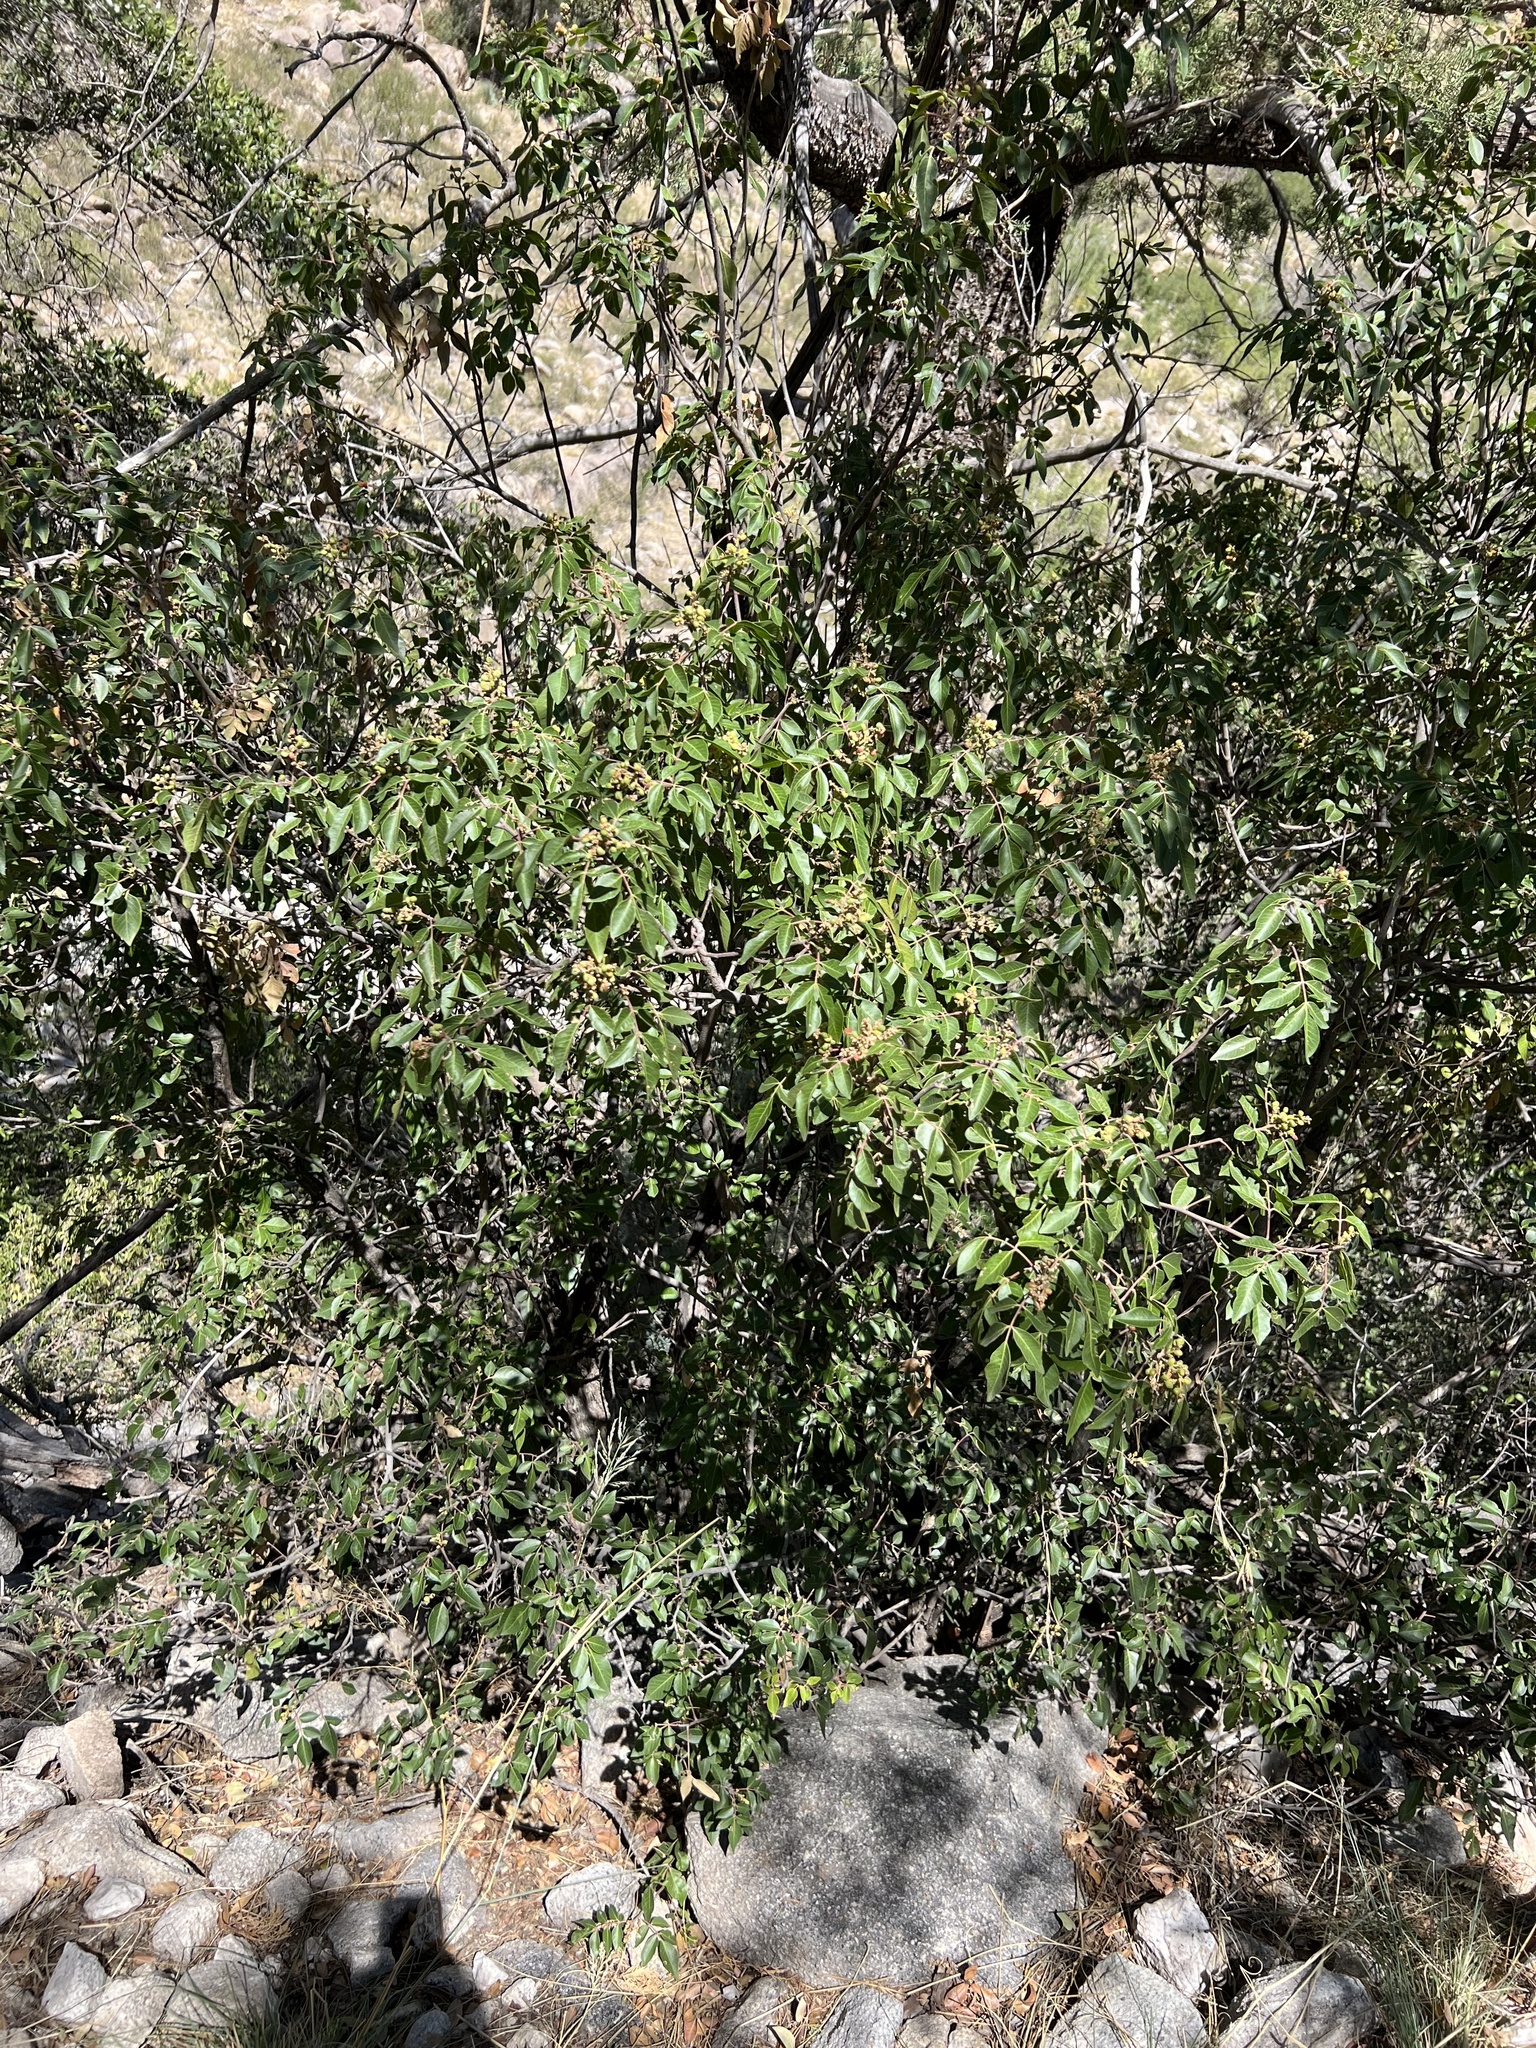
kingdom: Plantae
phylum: Tracheophyta
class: Magnoliopsida
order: Sapindales
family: Anacardiaceae
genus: Rhus
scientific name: Rhus virens
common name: Evergreen sumac
